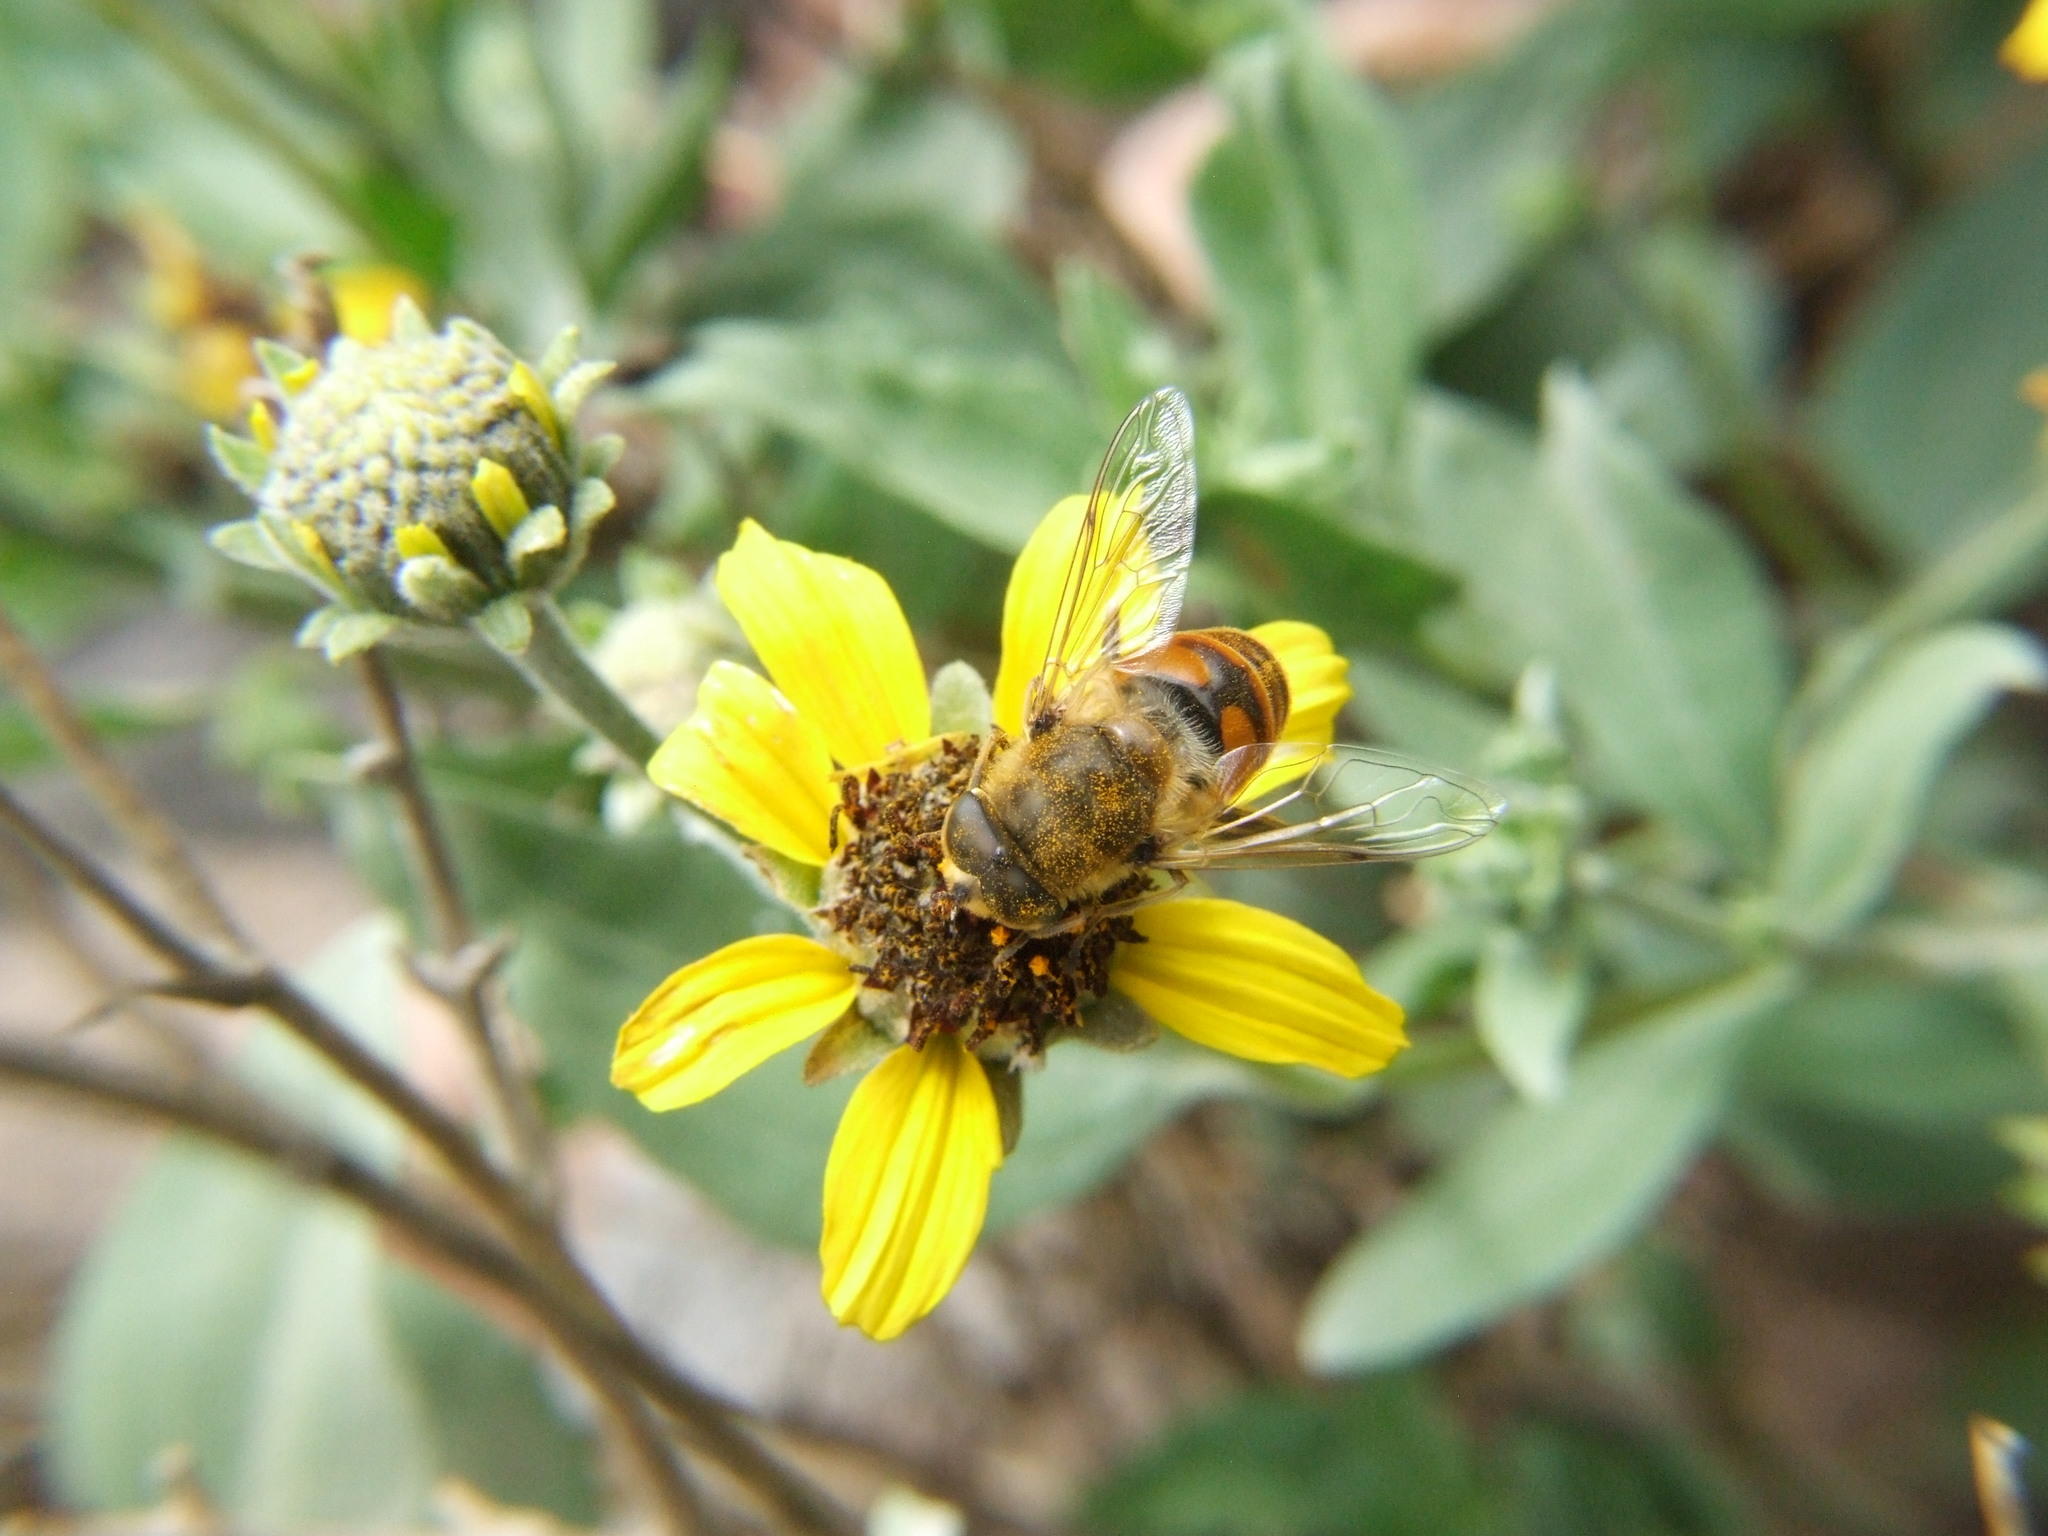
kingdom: Animalia
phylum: Arthropoda
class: Insecta
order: Diptera
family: Syrphidae
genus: Eristalis
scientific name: Eristalis tenax
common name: Drone fly
